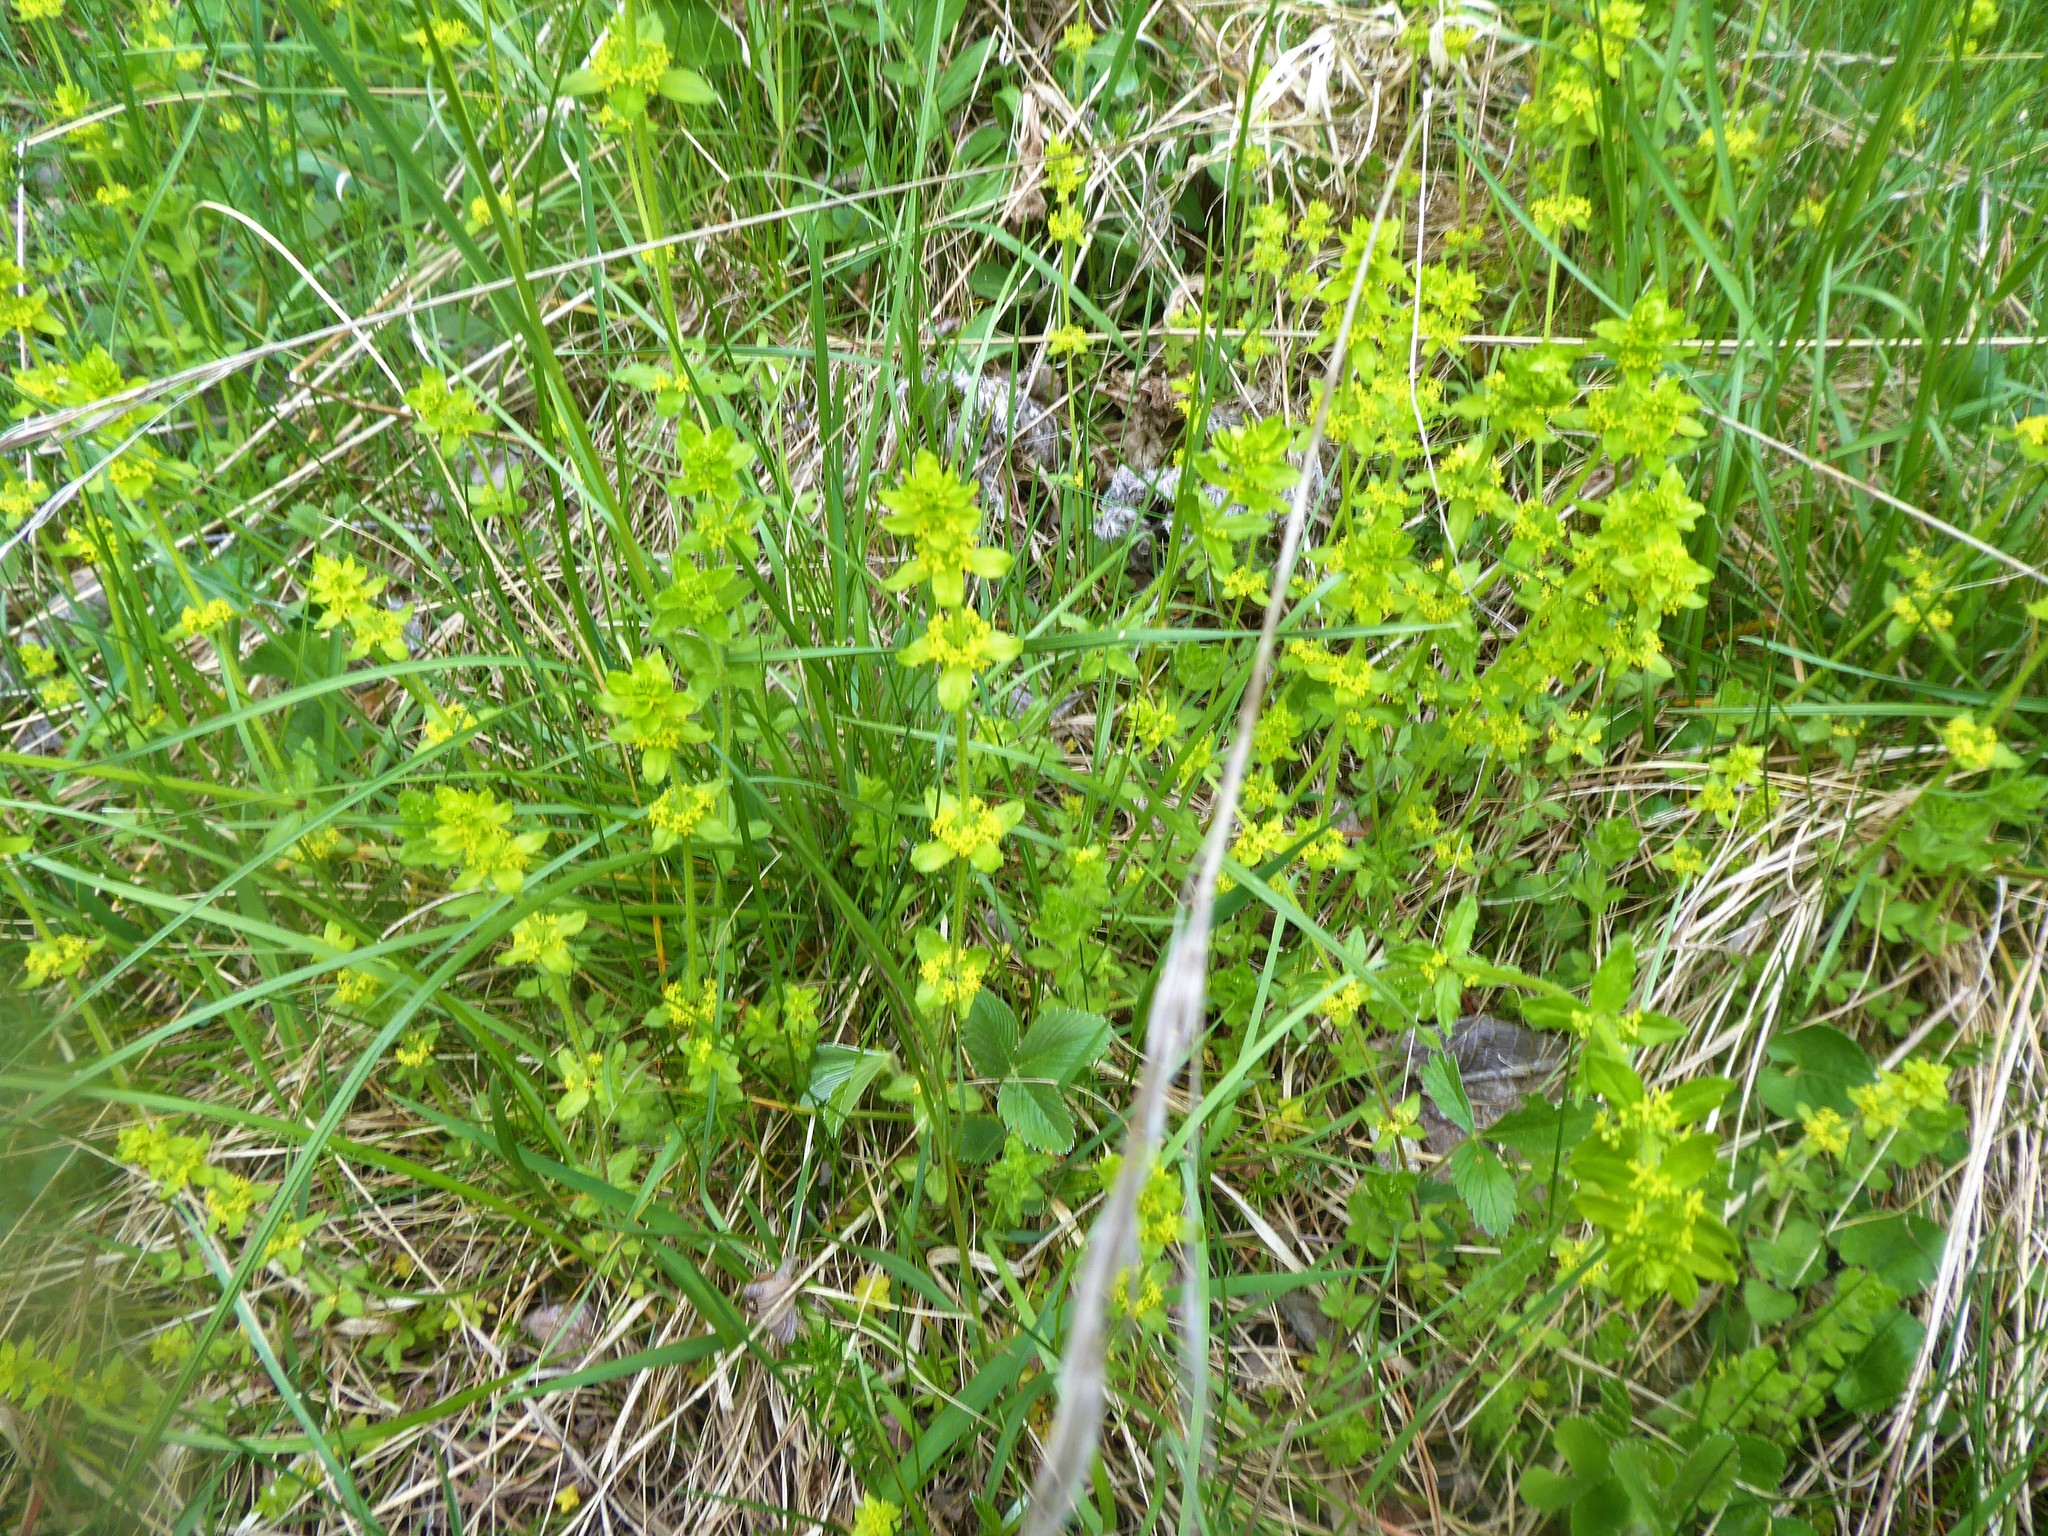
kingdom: Plantae
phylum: Tracheophyta
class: Magnoliopsida
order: Gentianales
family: Rubiaceae
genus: Cruciata
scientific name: Cruciata laevipes
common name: Crosswort
